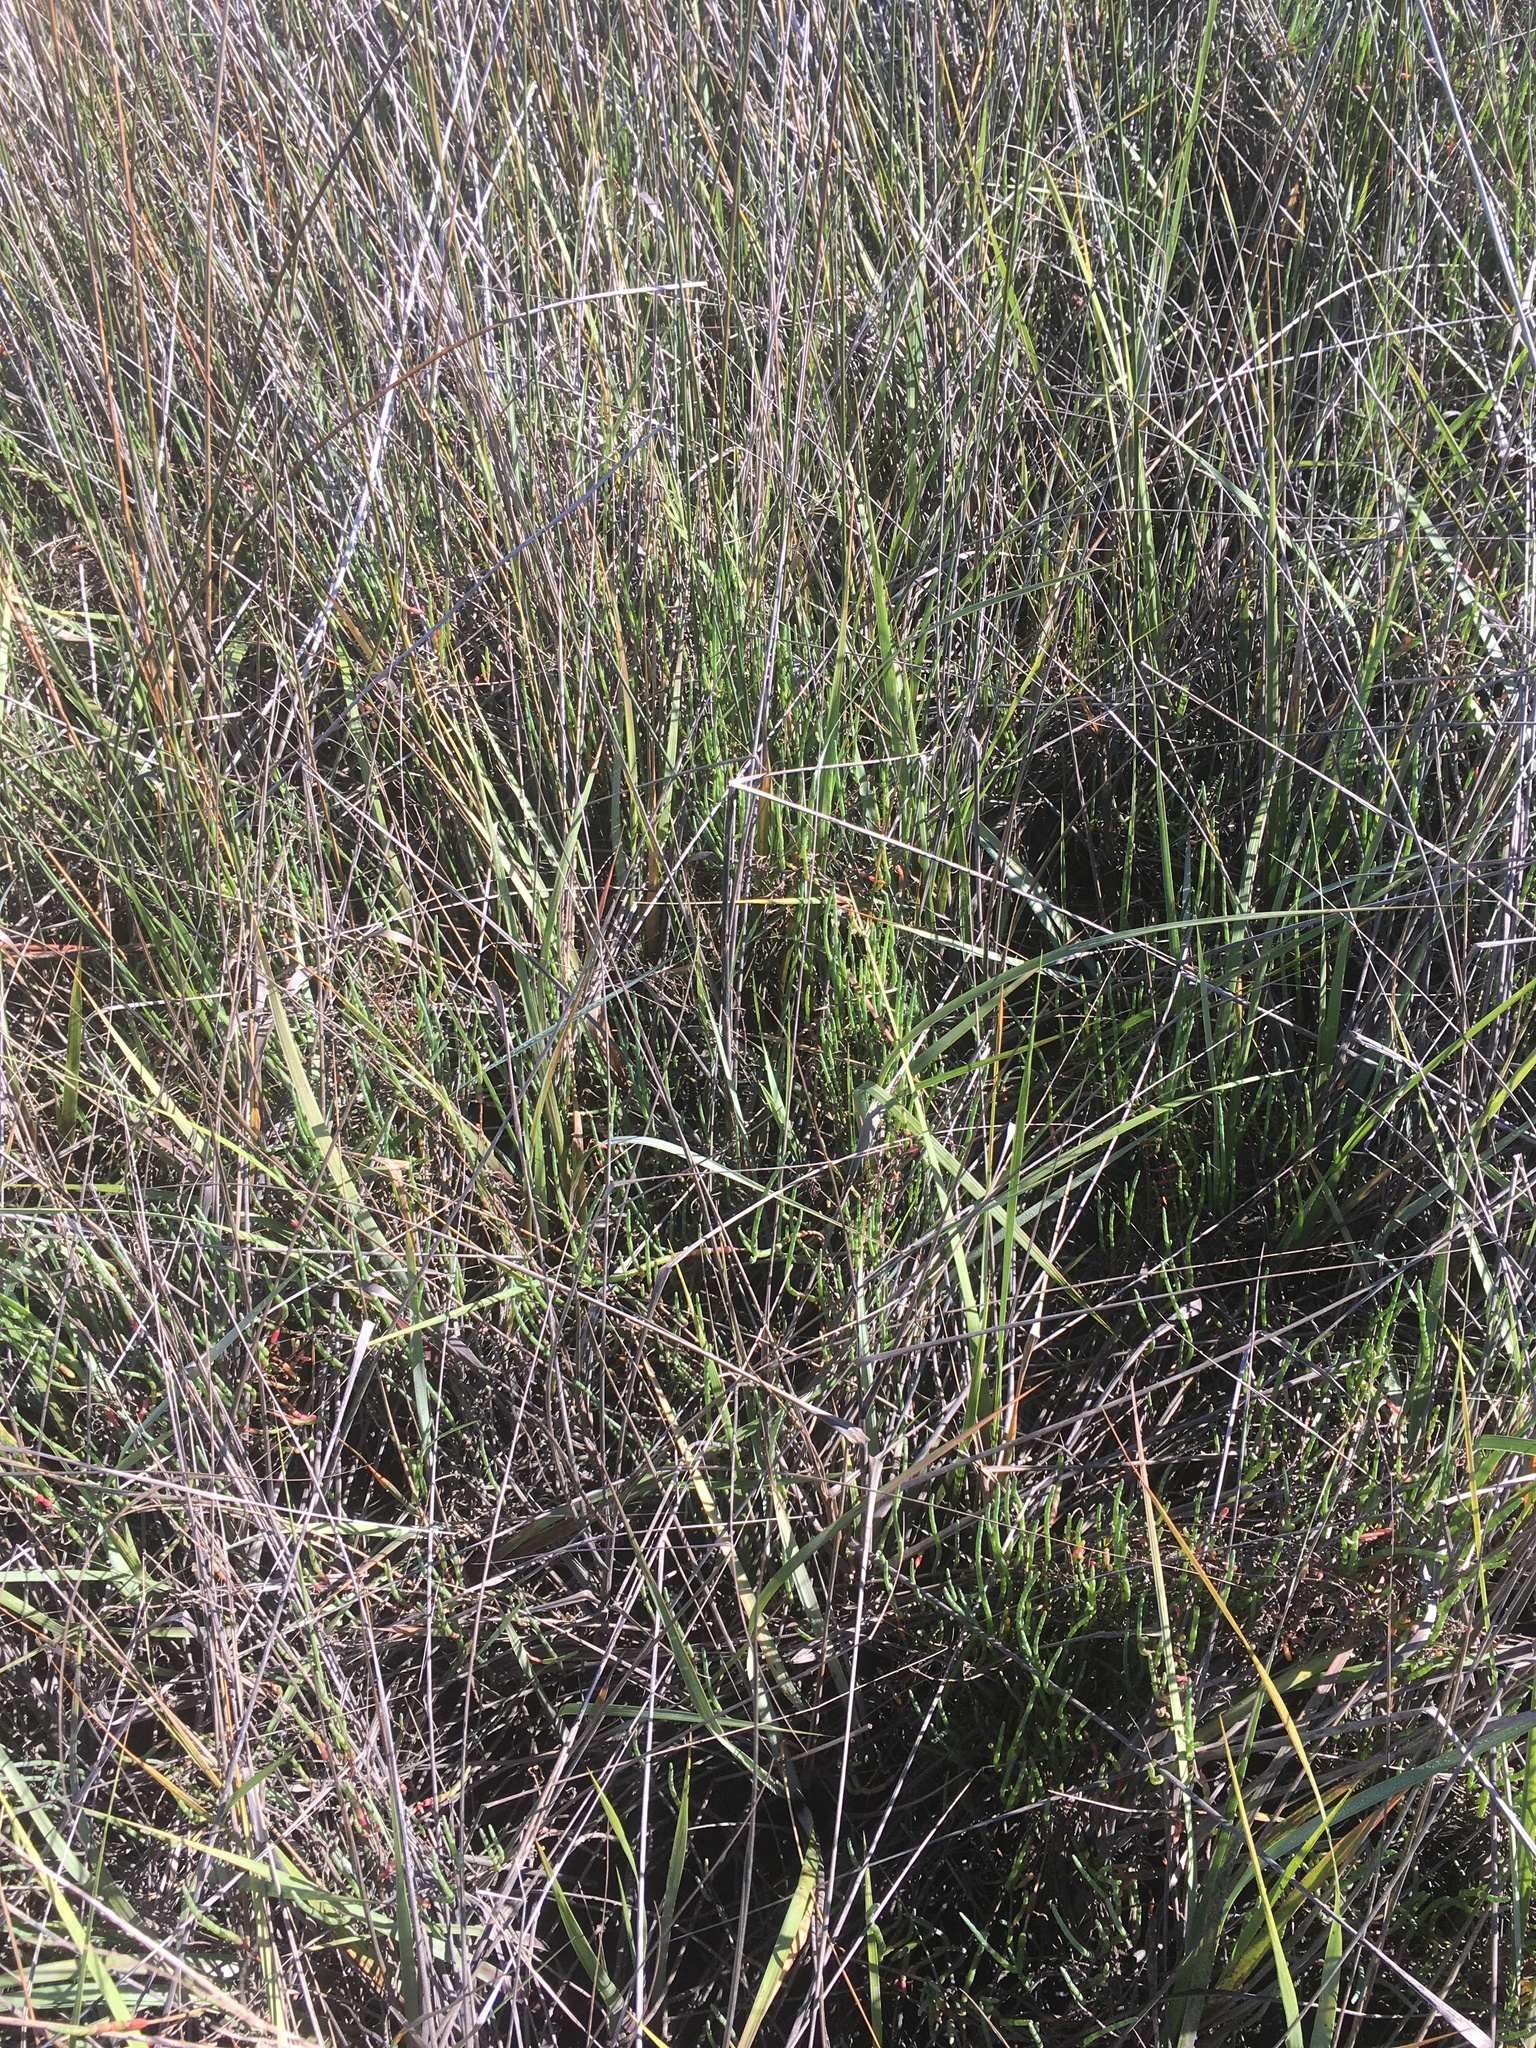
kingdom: Plantae
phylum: Tracheophyta
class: Magnoliopsida
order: Caryophyllales
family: Amaranthaceae
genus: Salicornia
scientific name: Salicornia ambigua
